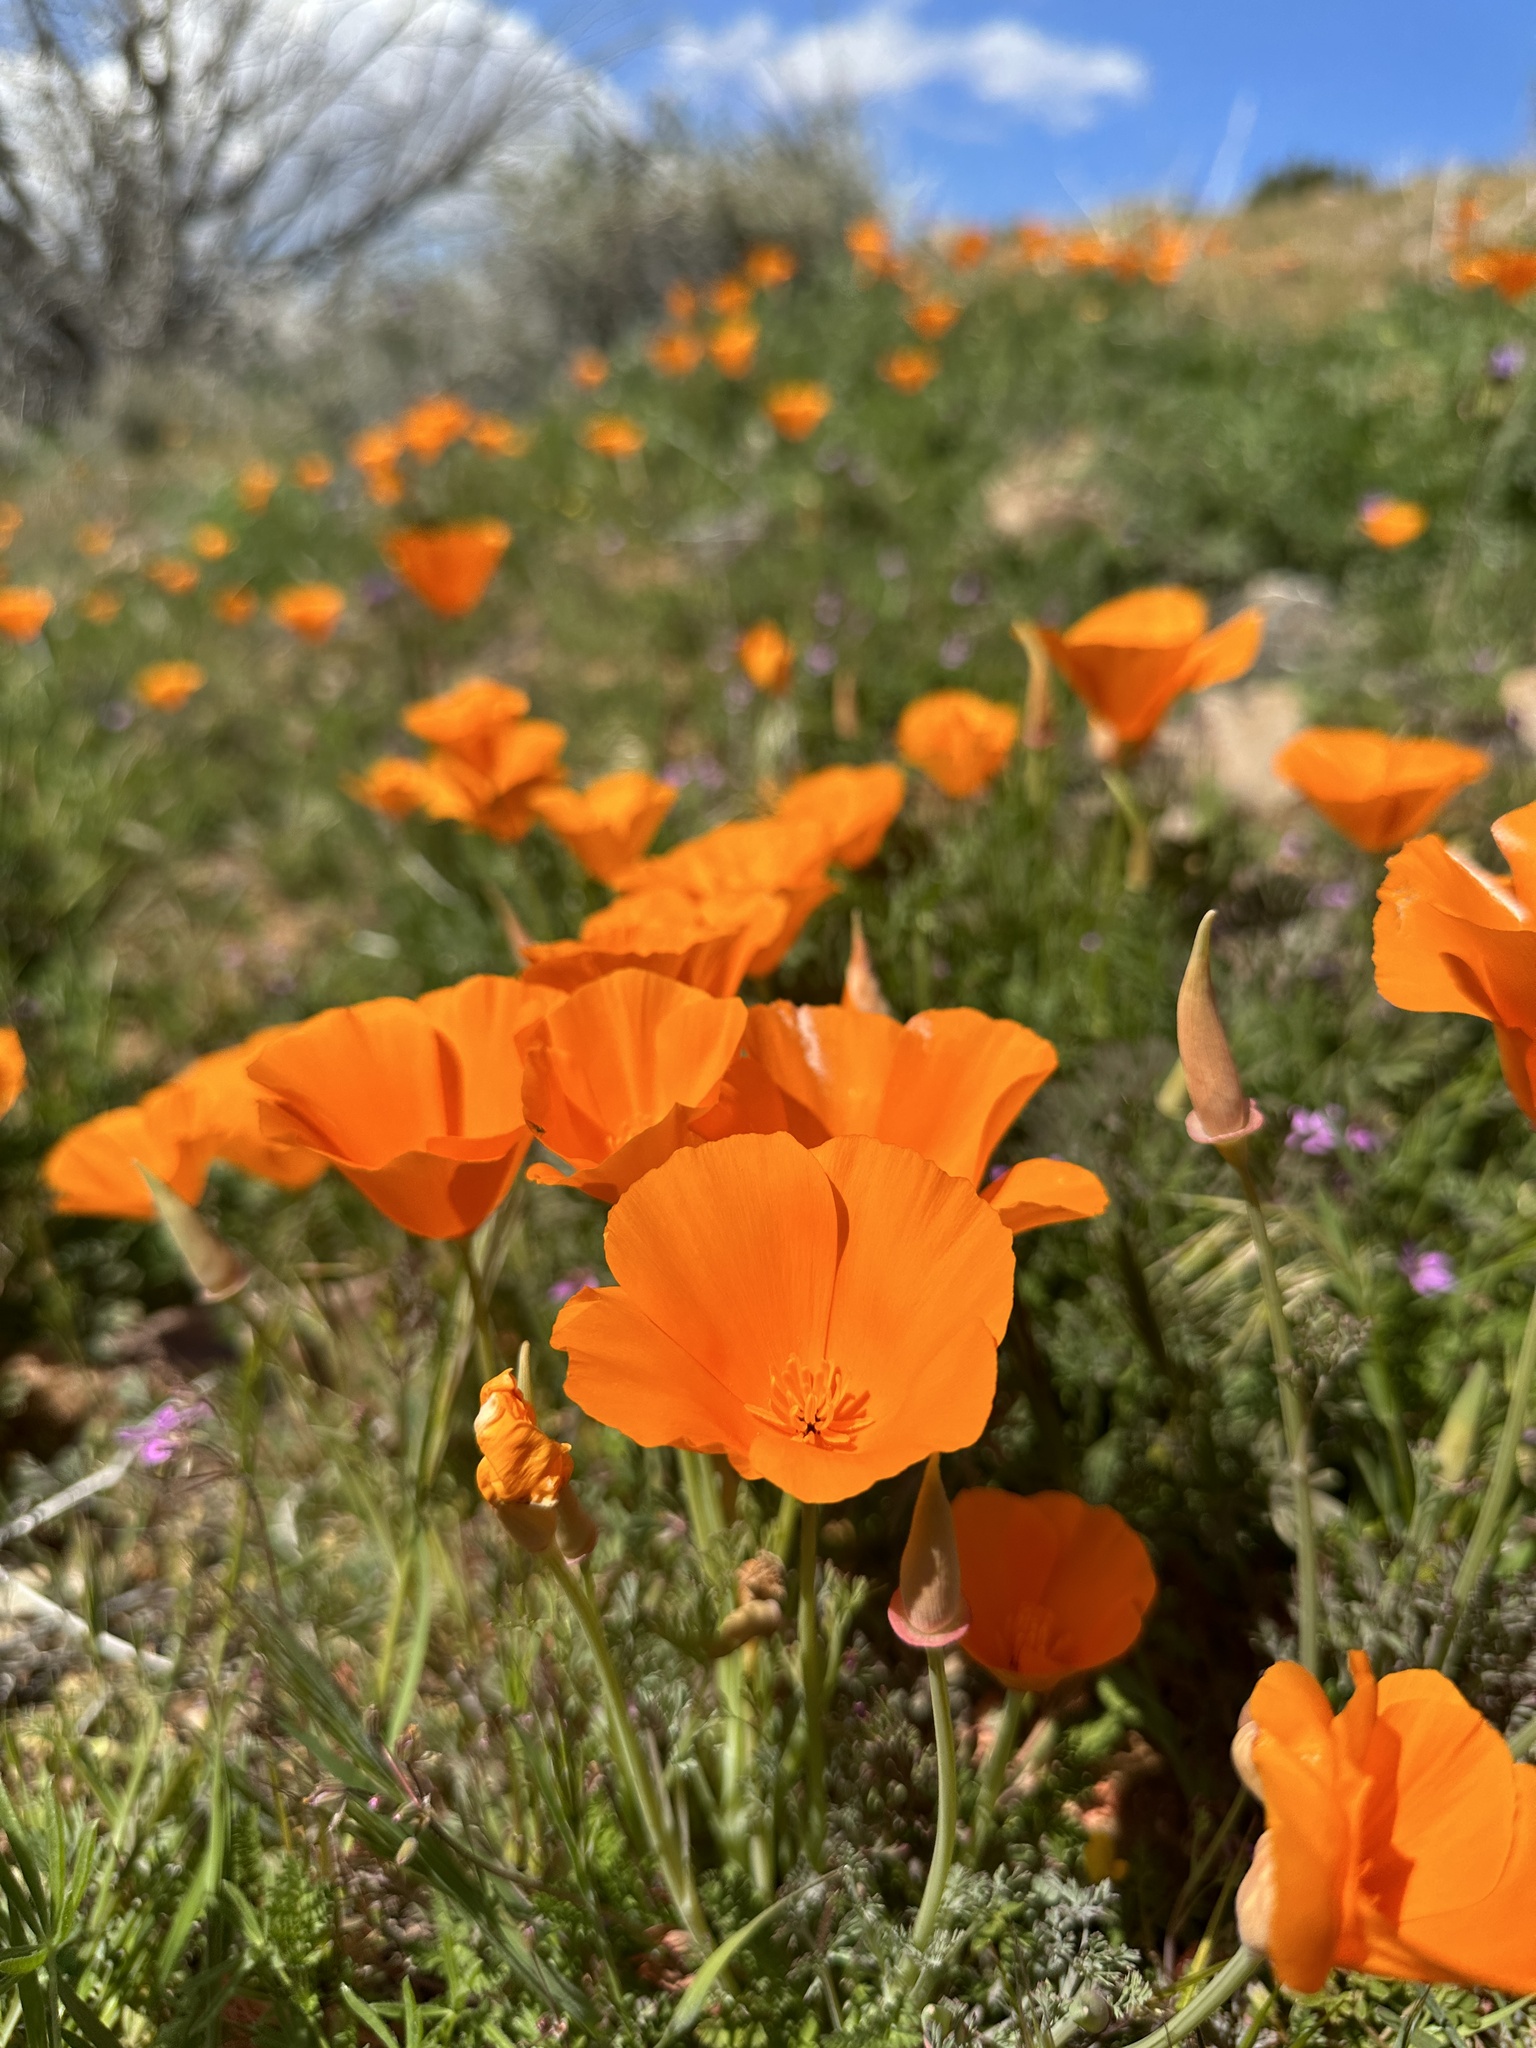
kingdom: Plantae
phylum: Tracheophyta
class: Magnoliopsida
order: Ranunculales
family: Papaveraceae
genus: Eschscholzia
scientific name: Eschscholzia californica
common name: California poppy
